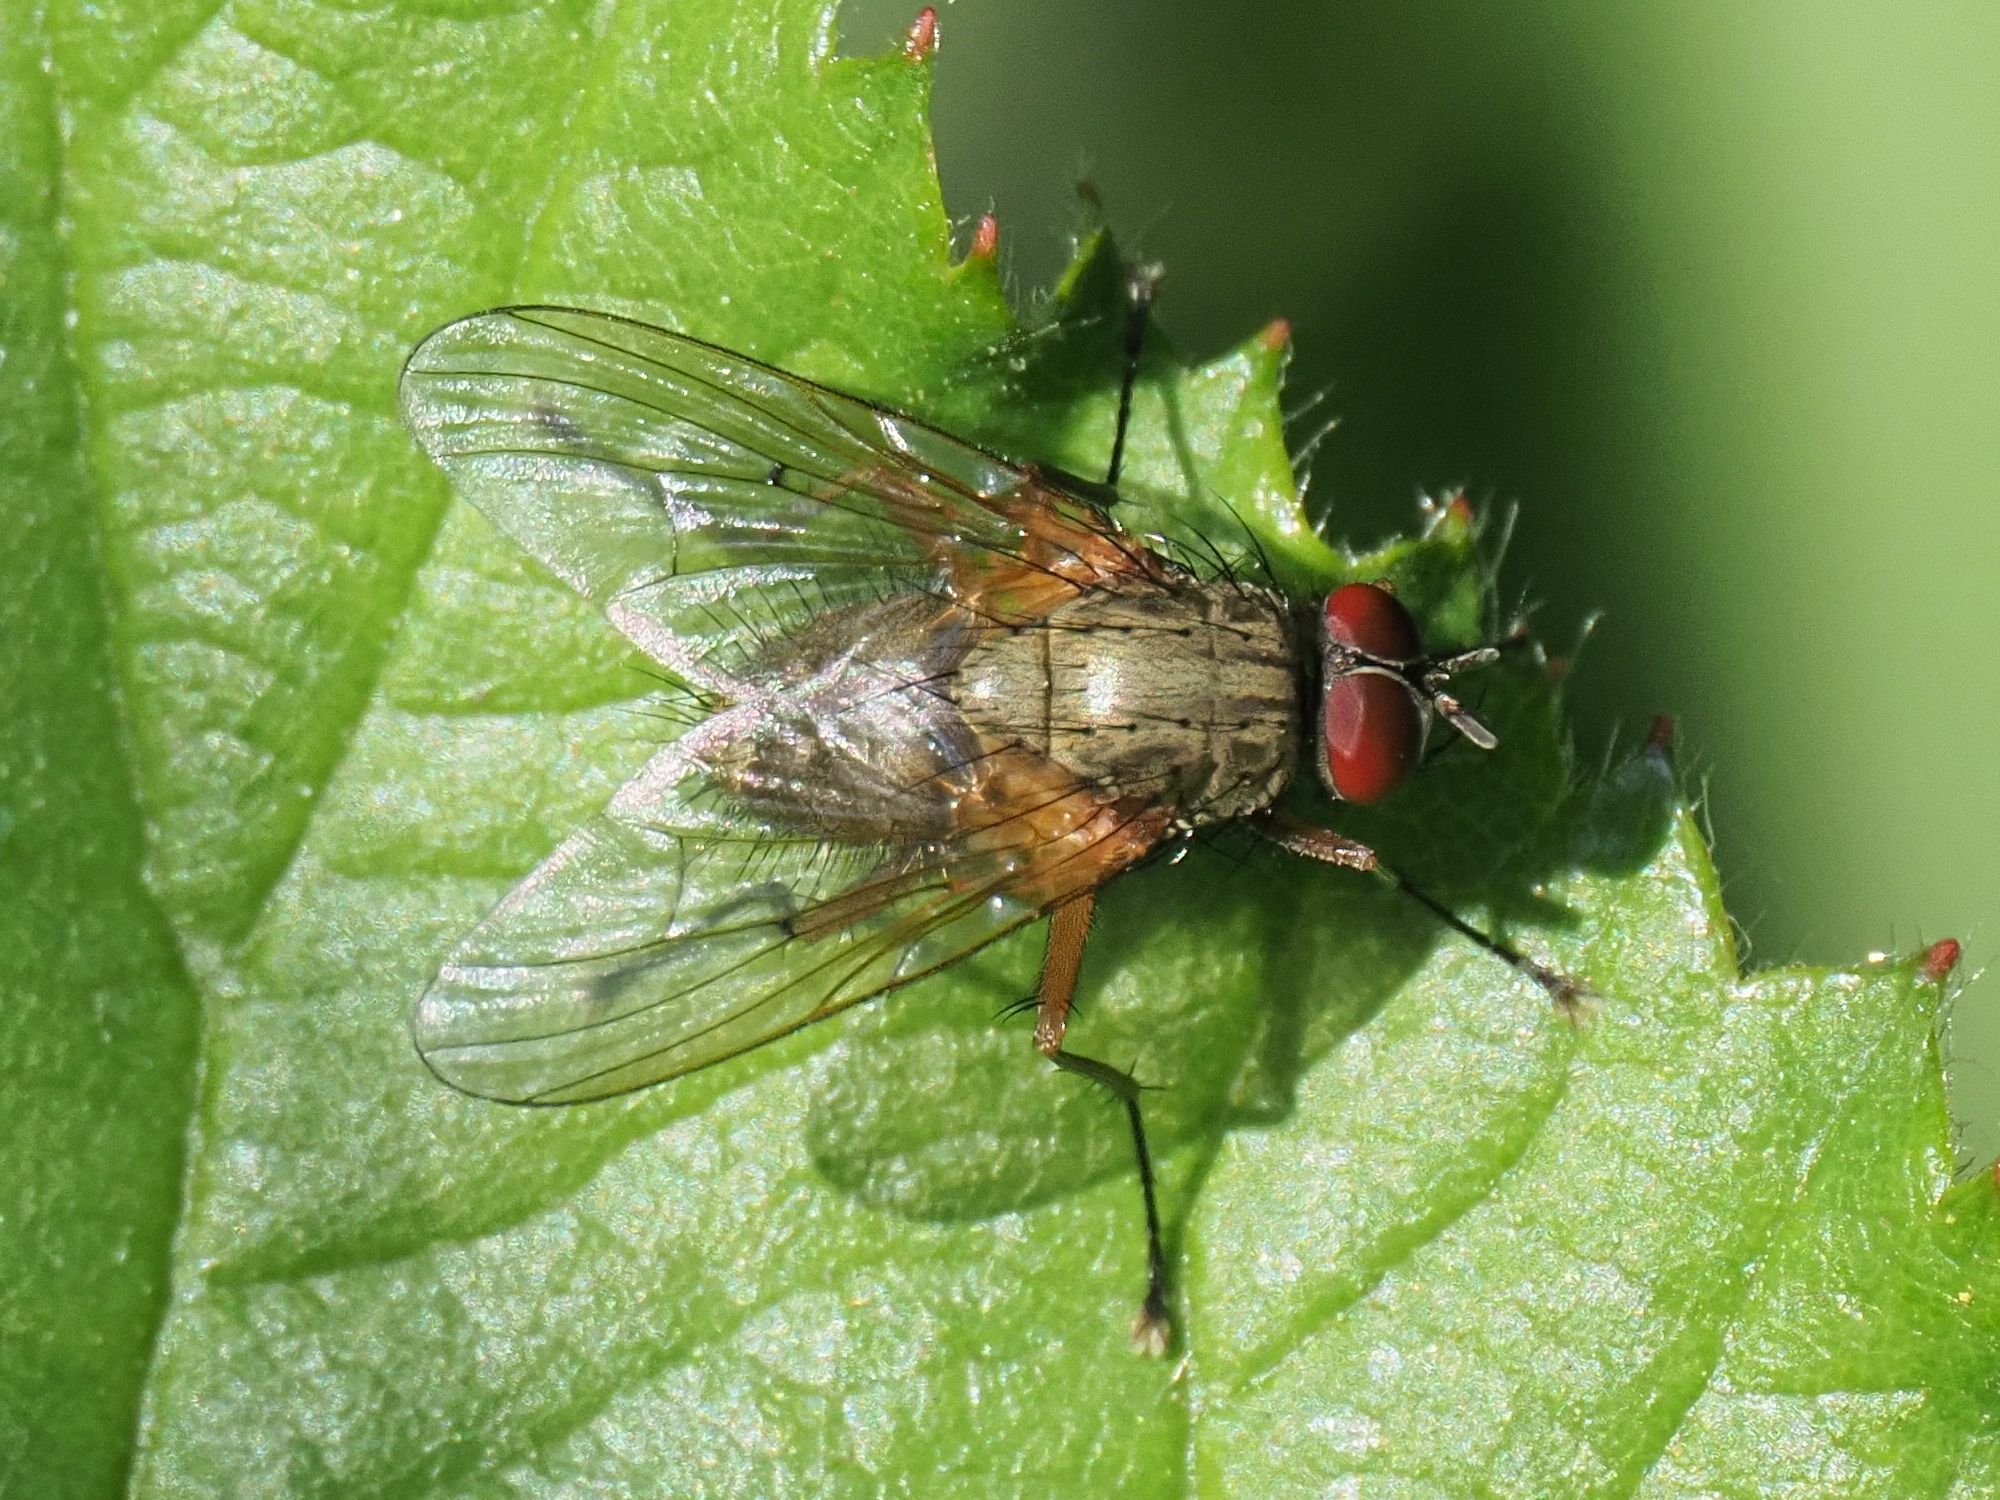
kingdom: Animalia
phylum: Arthropoda
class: Insecta
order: Diptera
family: Muscidae
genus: Phaonia
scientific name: Phaonia angelicae
